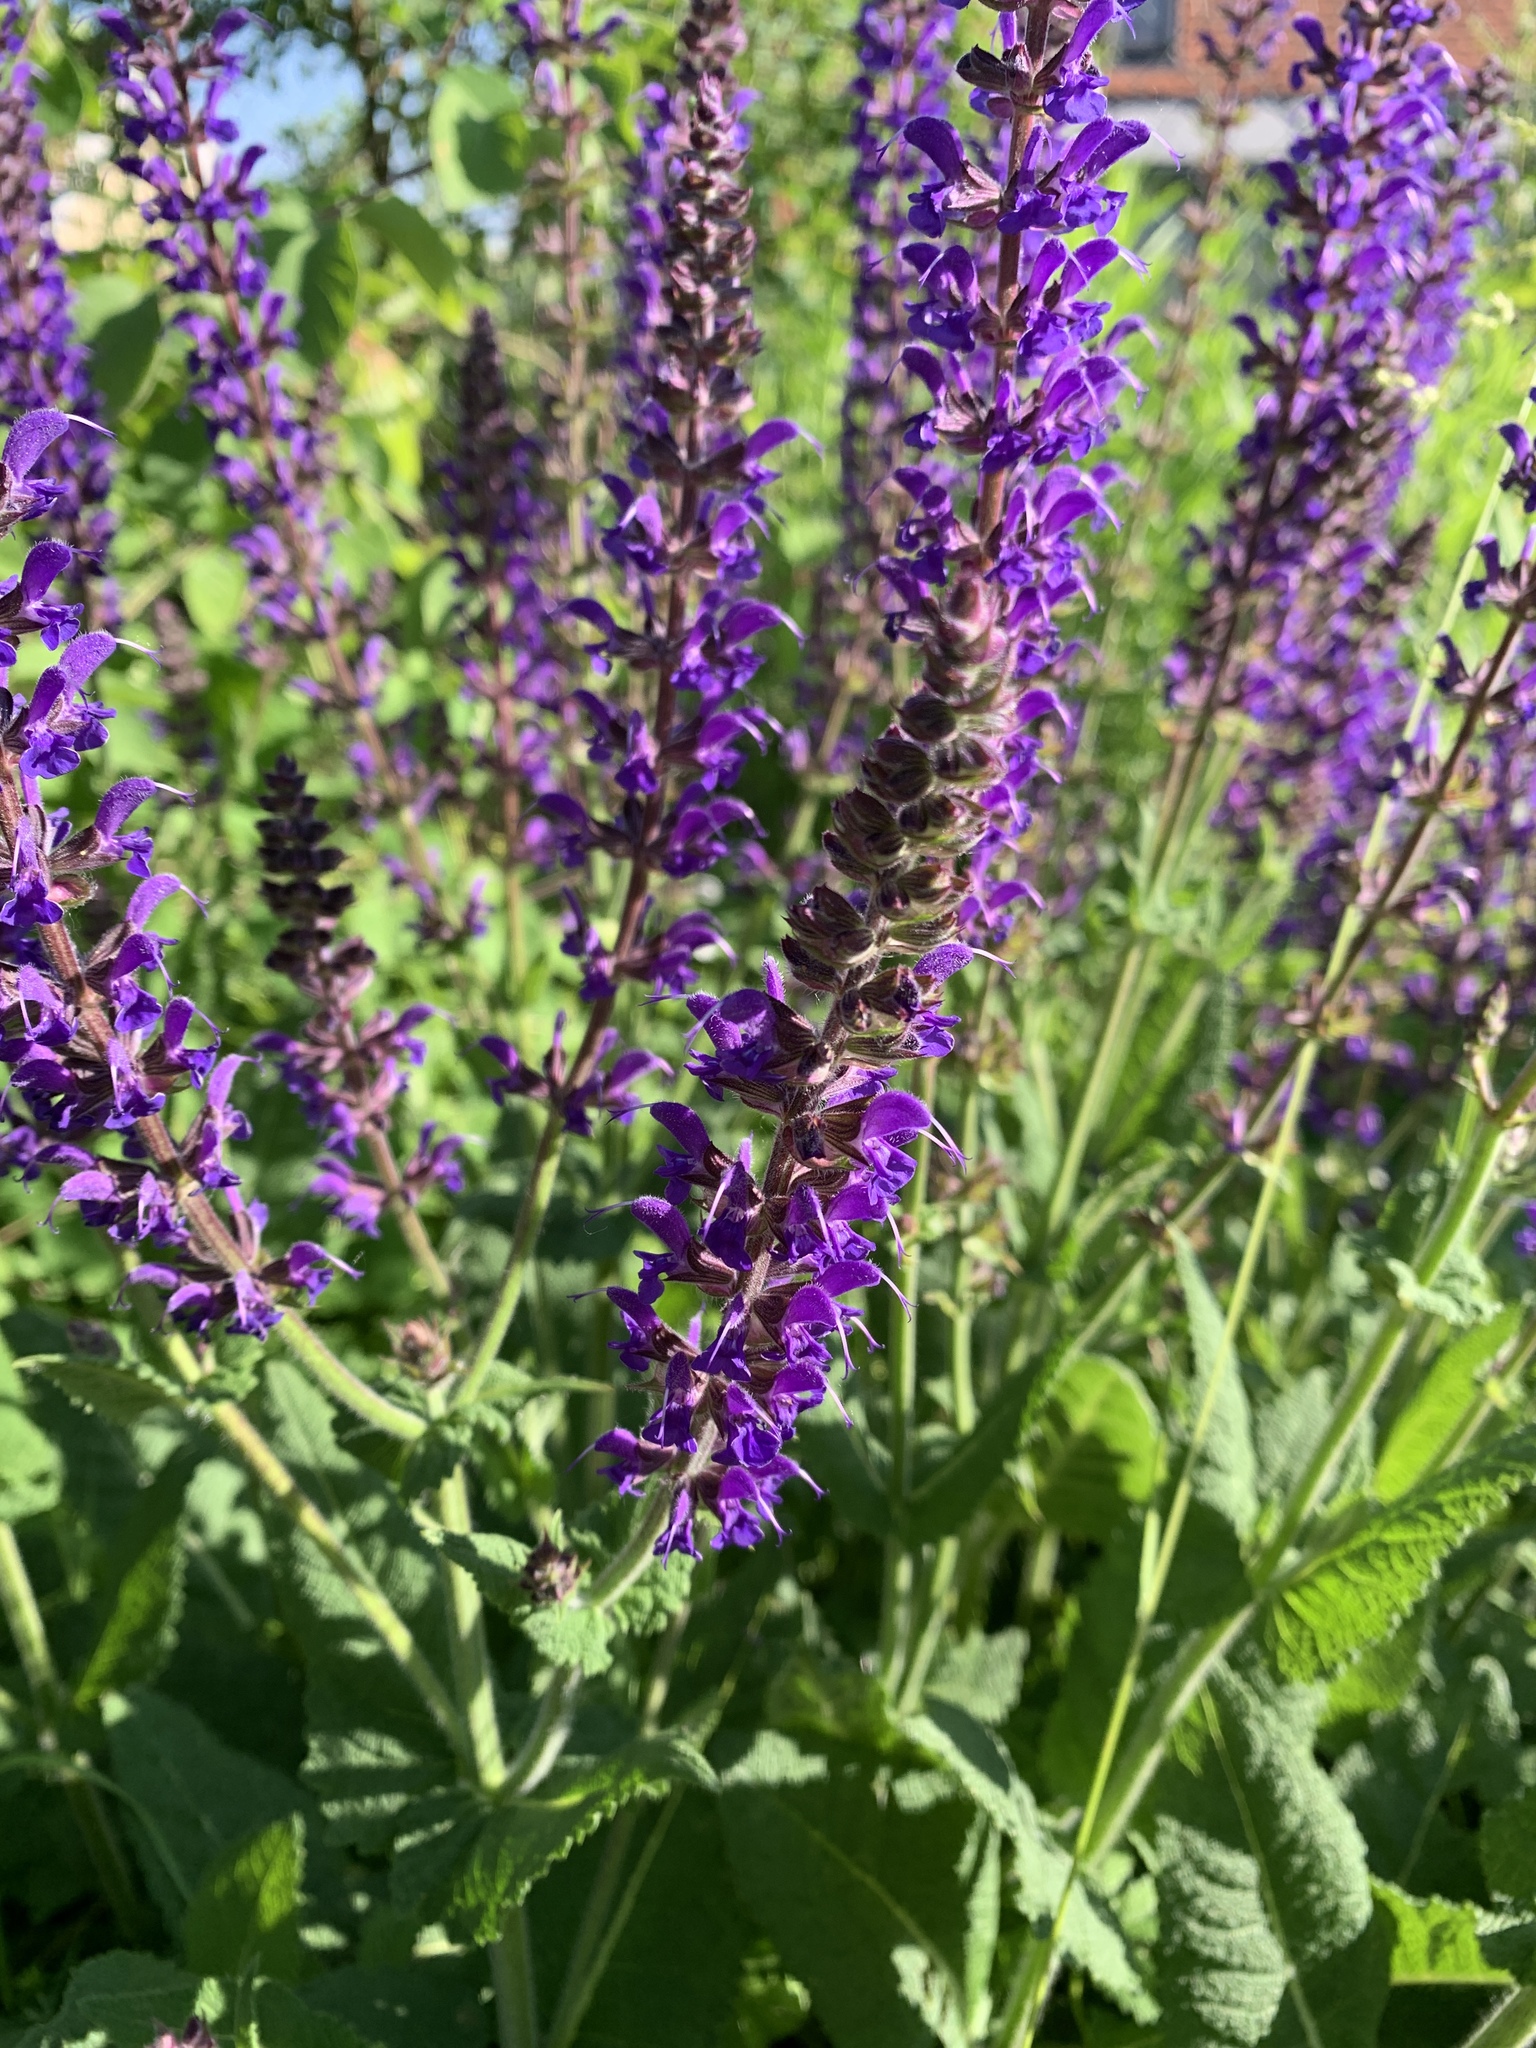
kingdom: Plantae
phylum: Tracheophyta
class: Magnoliopsida
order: Lamiales
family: Lamiaceae
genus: Salvia
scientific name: Salvia nemorosa
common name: Balkan clary
